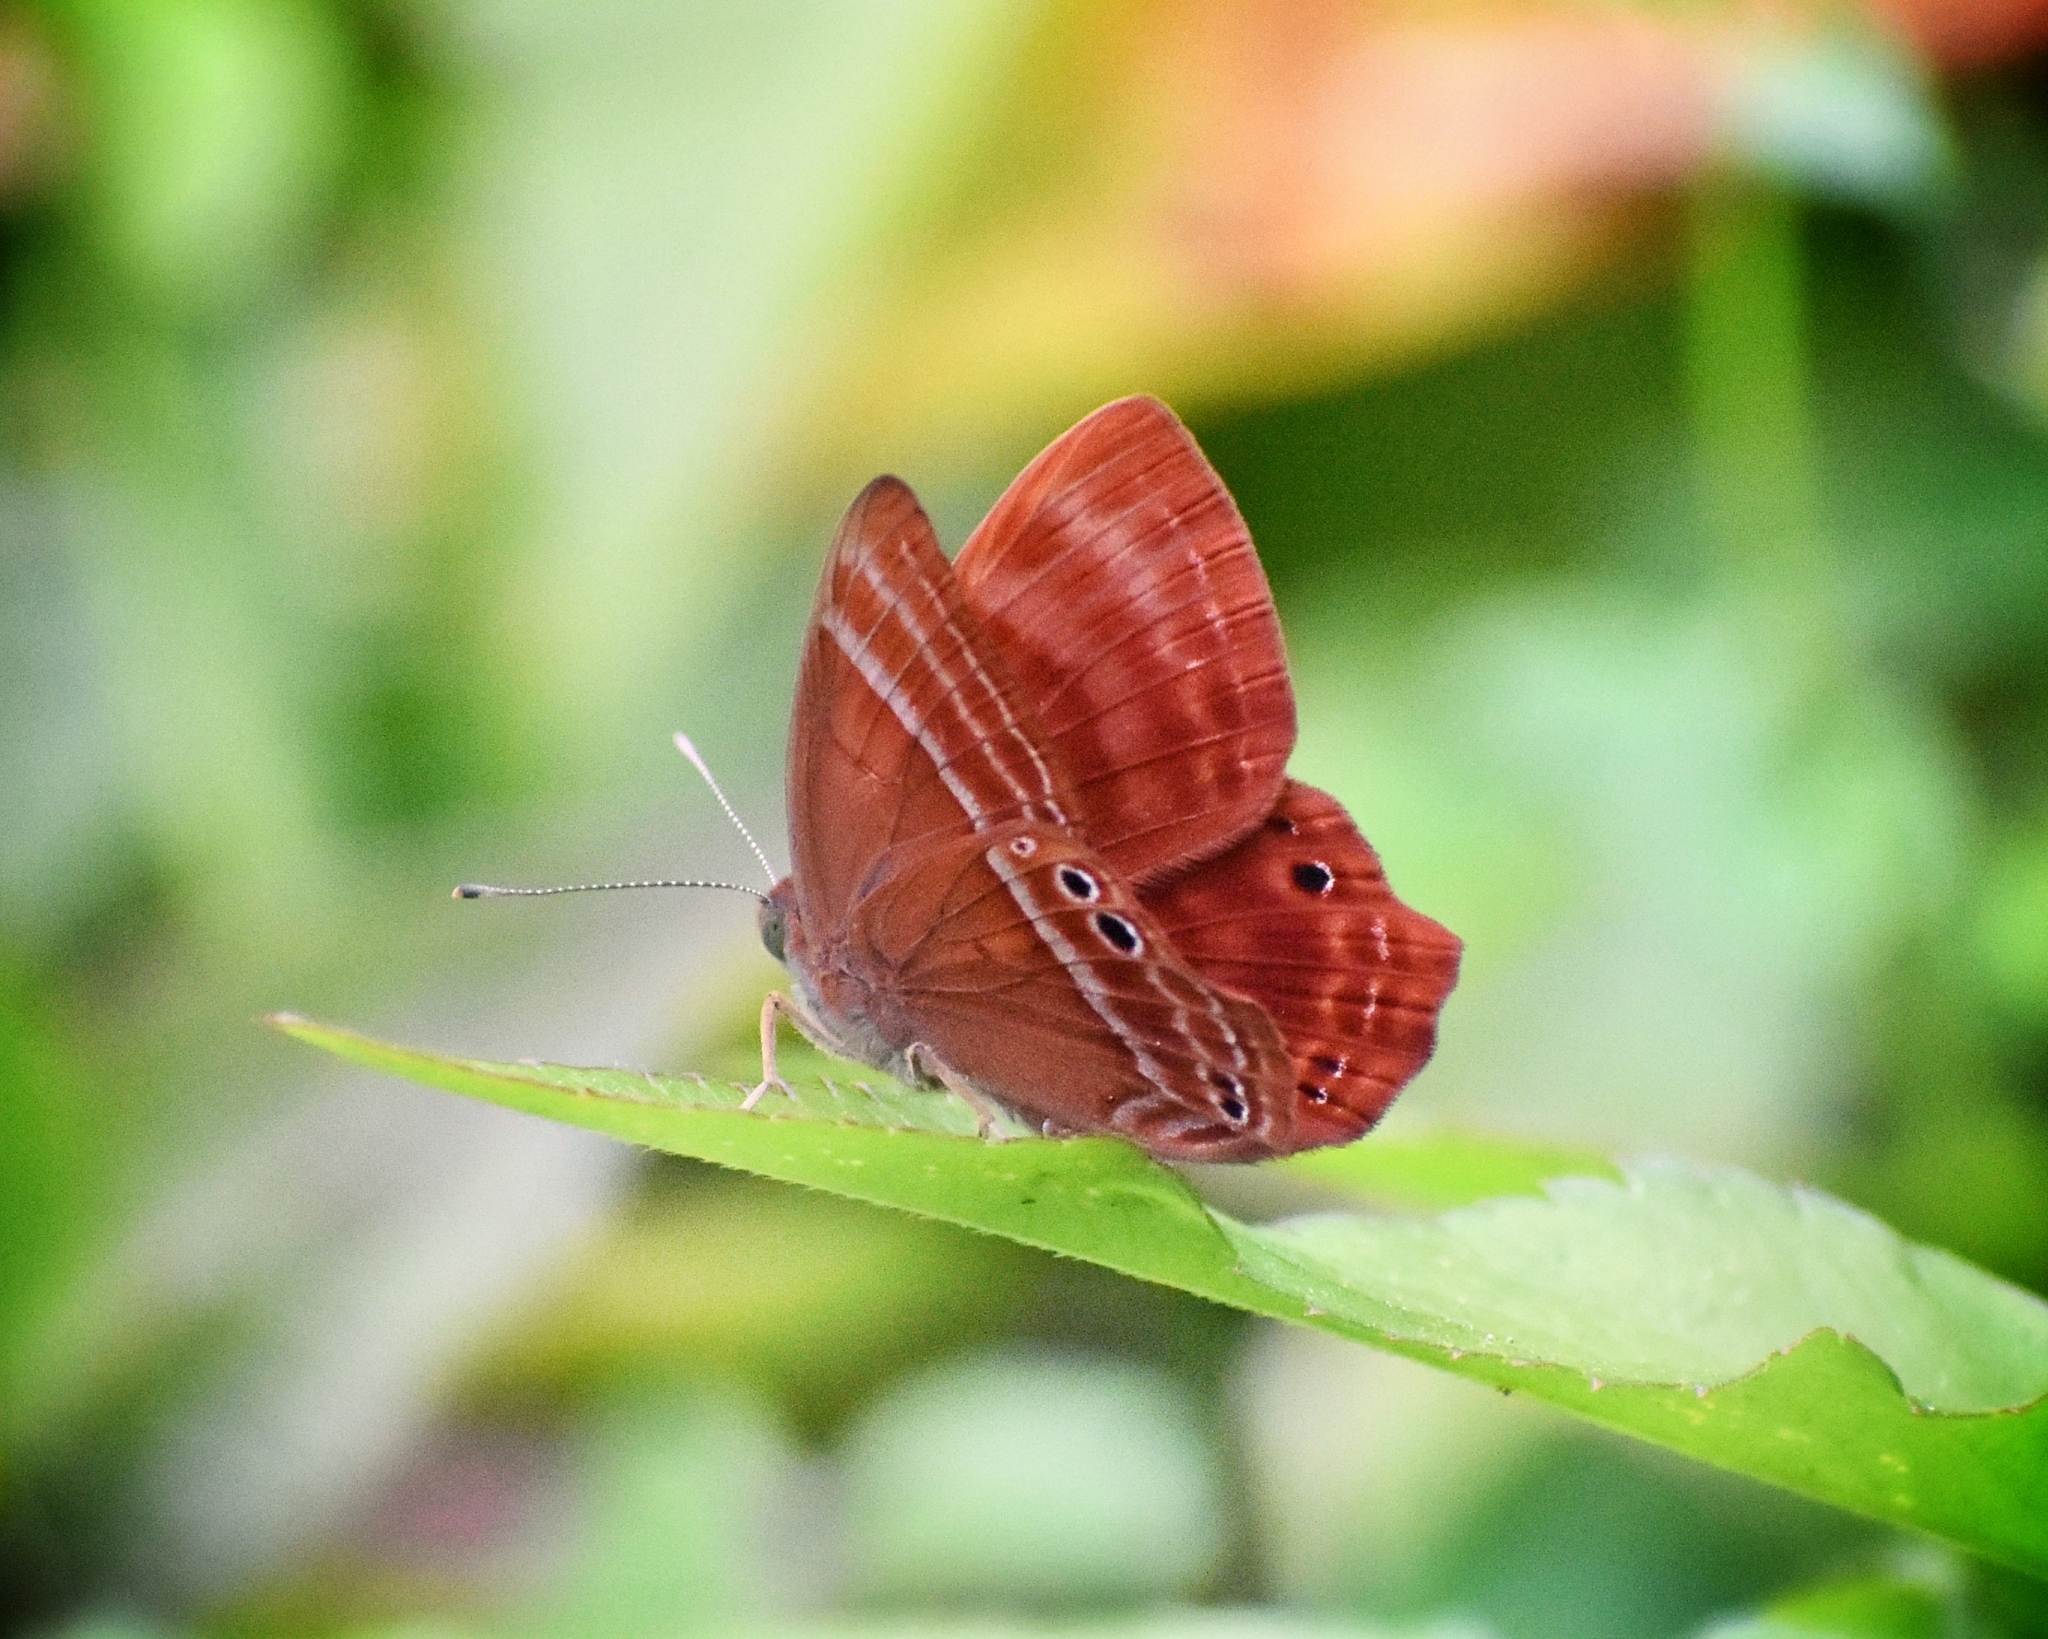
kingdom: Animalia
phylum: Arthropoda
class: Insecta
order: Lepidoptera
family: Lycaenidae
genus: Abisara
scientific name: Abisara echeria
